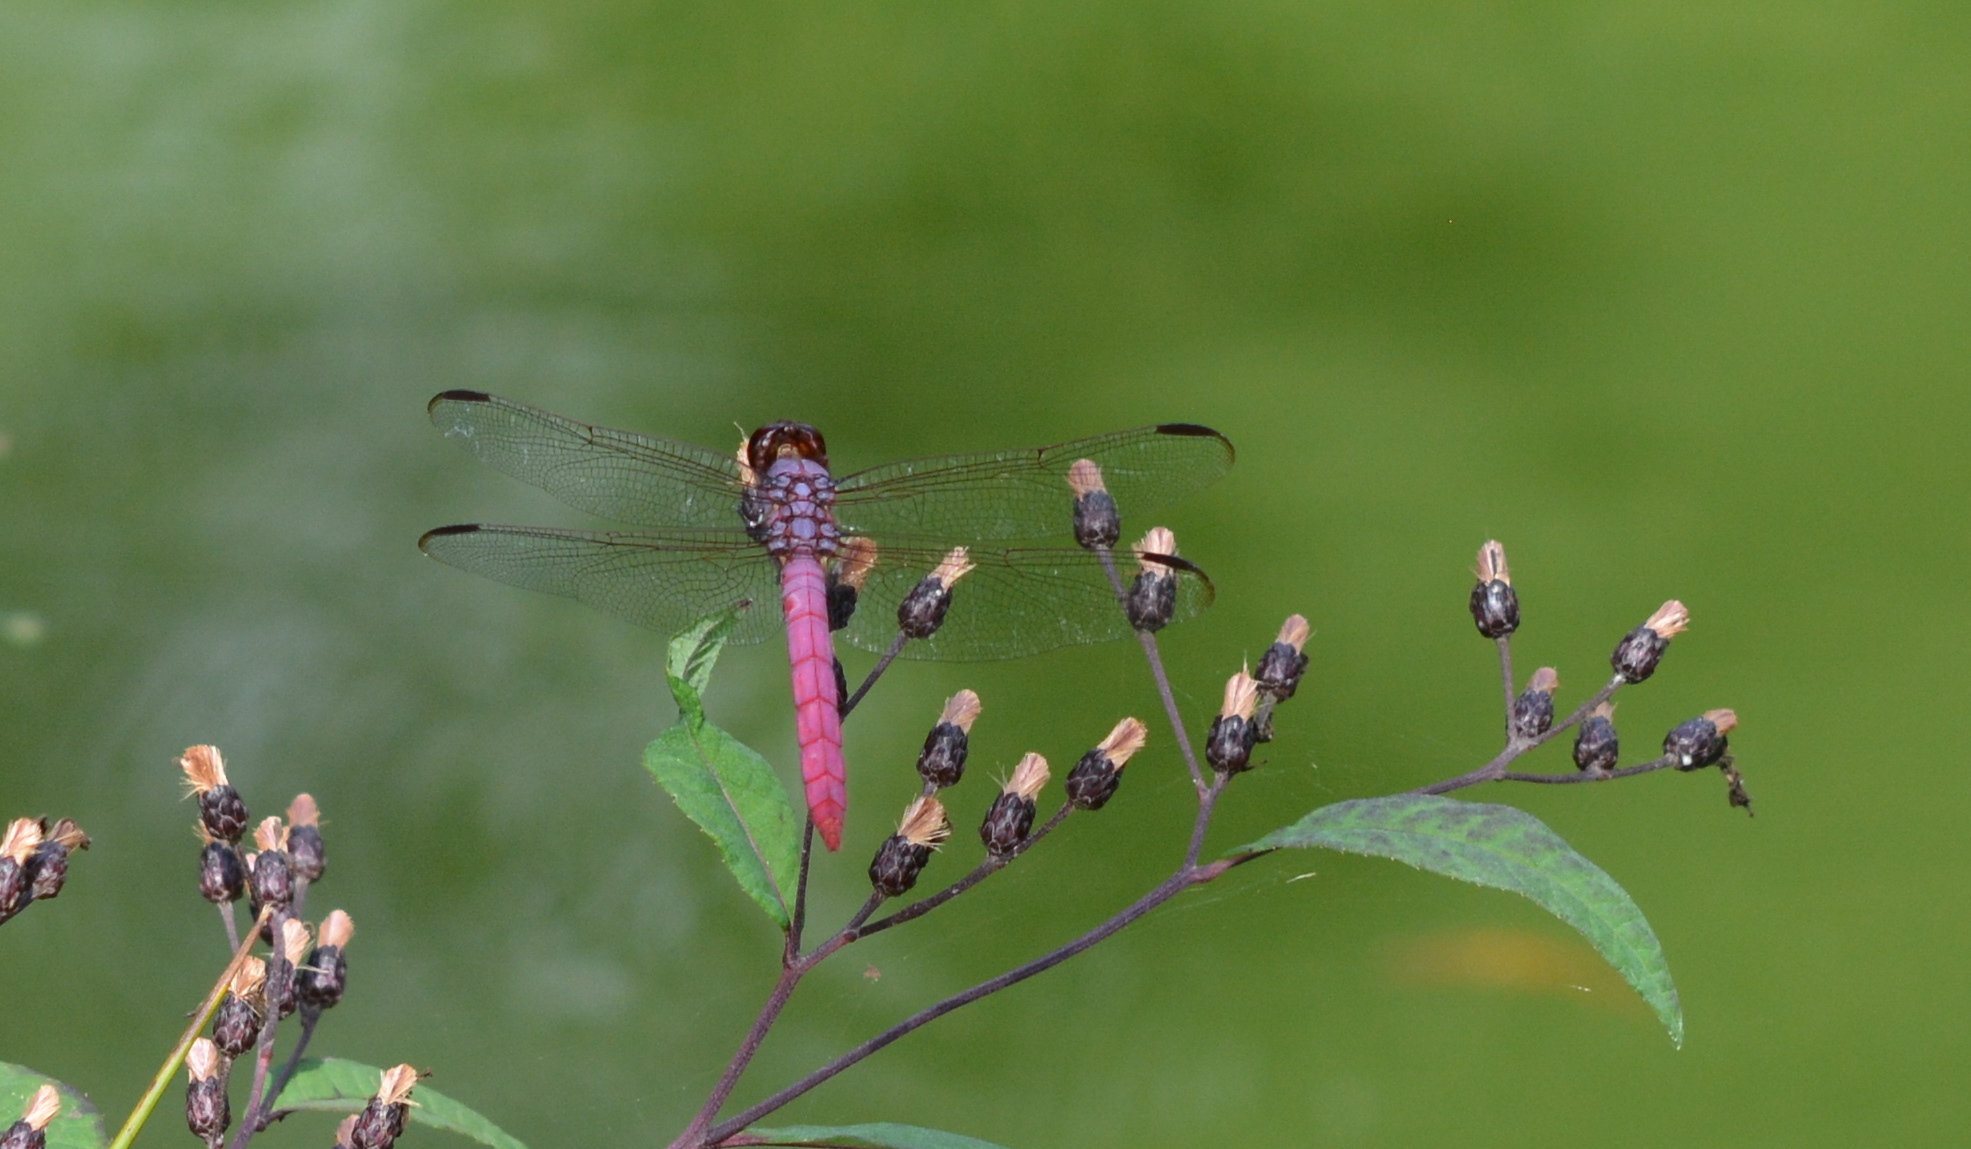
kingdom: Animalia
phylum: Arthropoda
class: Insecta
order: Odonata
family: Libellulidae
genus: Orthemis
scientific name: Orthemis ferruginea
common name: Roseate skimmer
